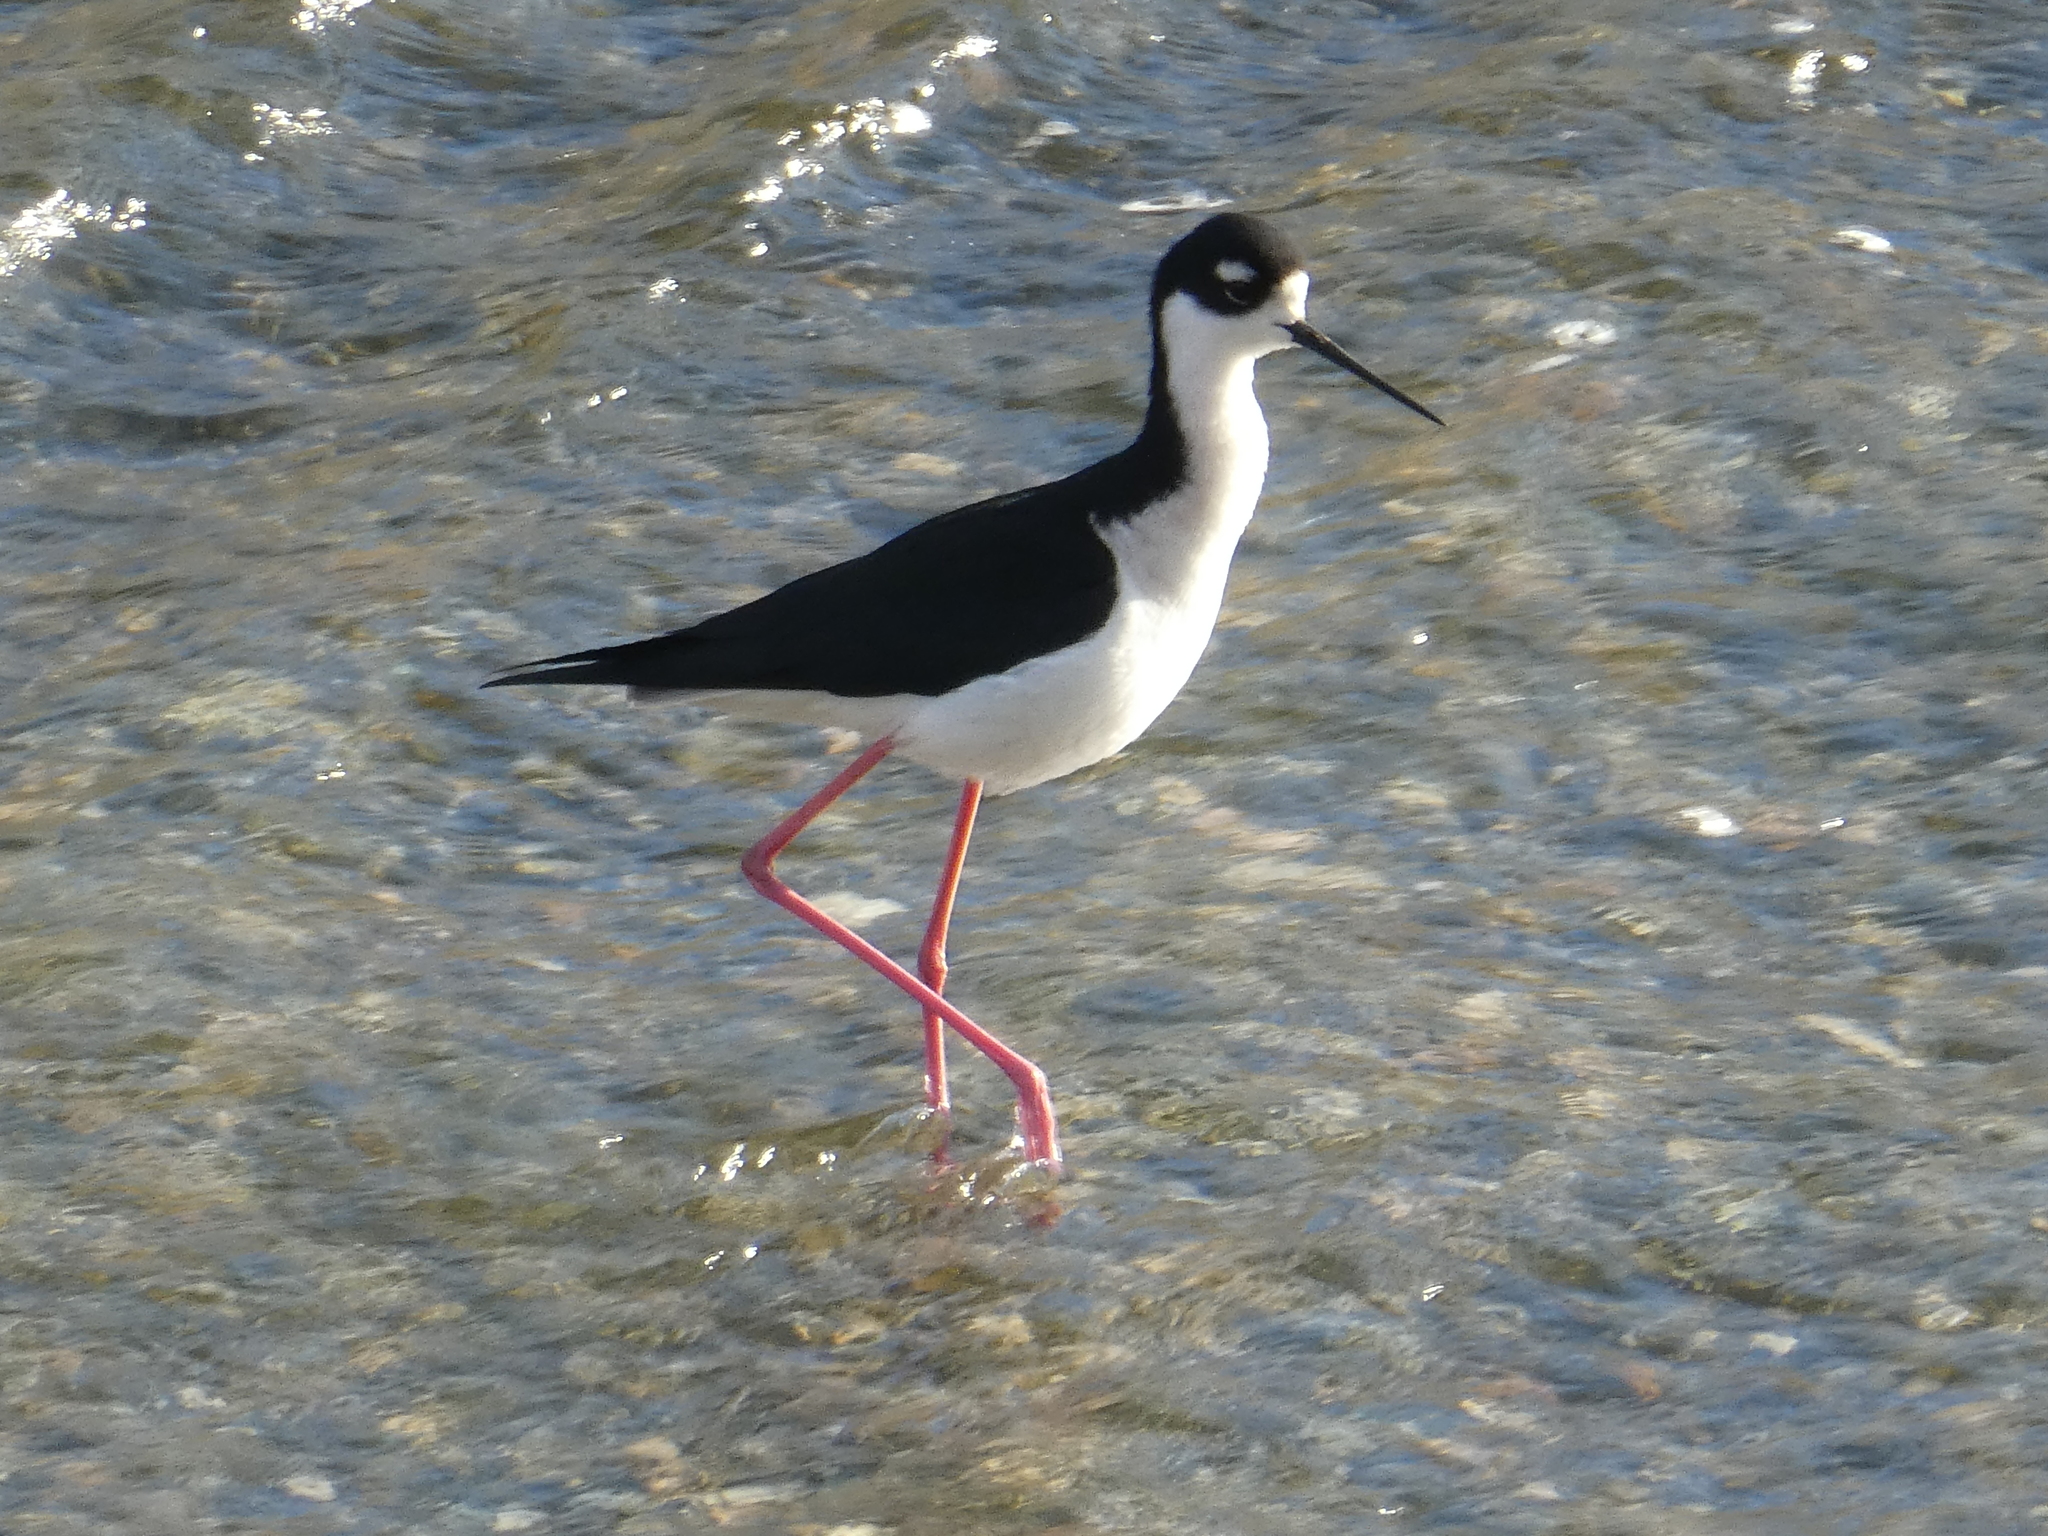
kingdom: Animalia
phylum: Chordata
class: Aves
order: Charadriiformes
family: Recurvirostridae
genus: Himantopus
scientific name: Himantopus mexicanus
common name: Black-necked stilt
